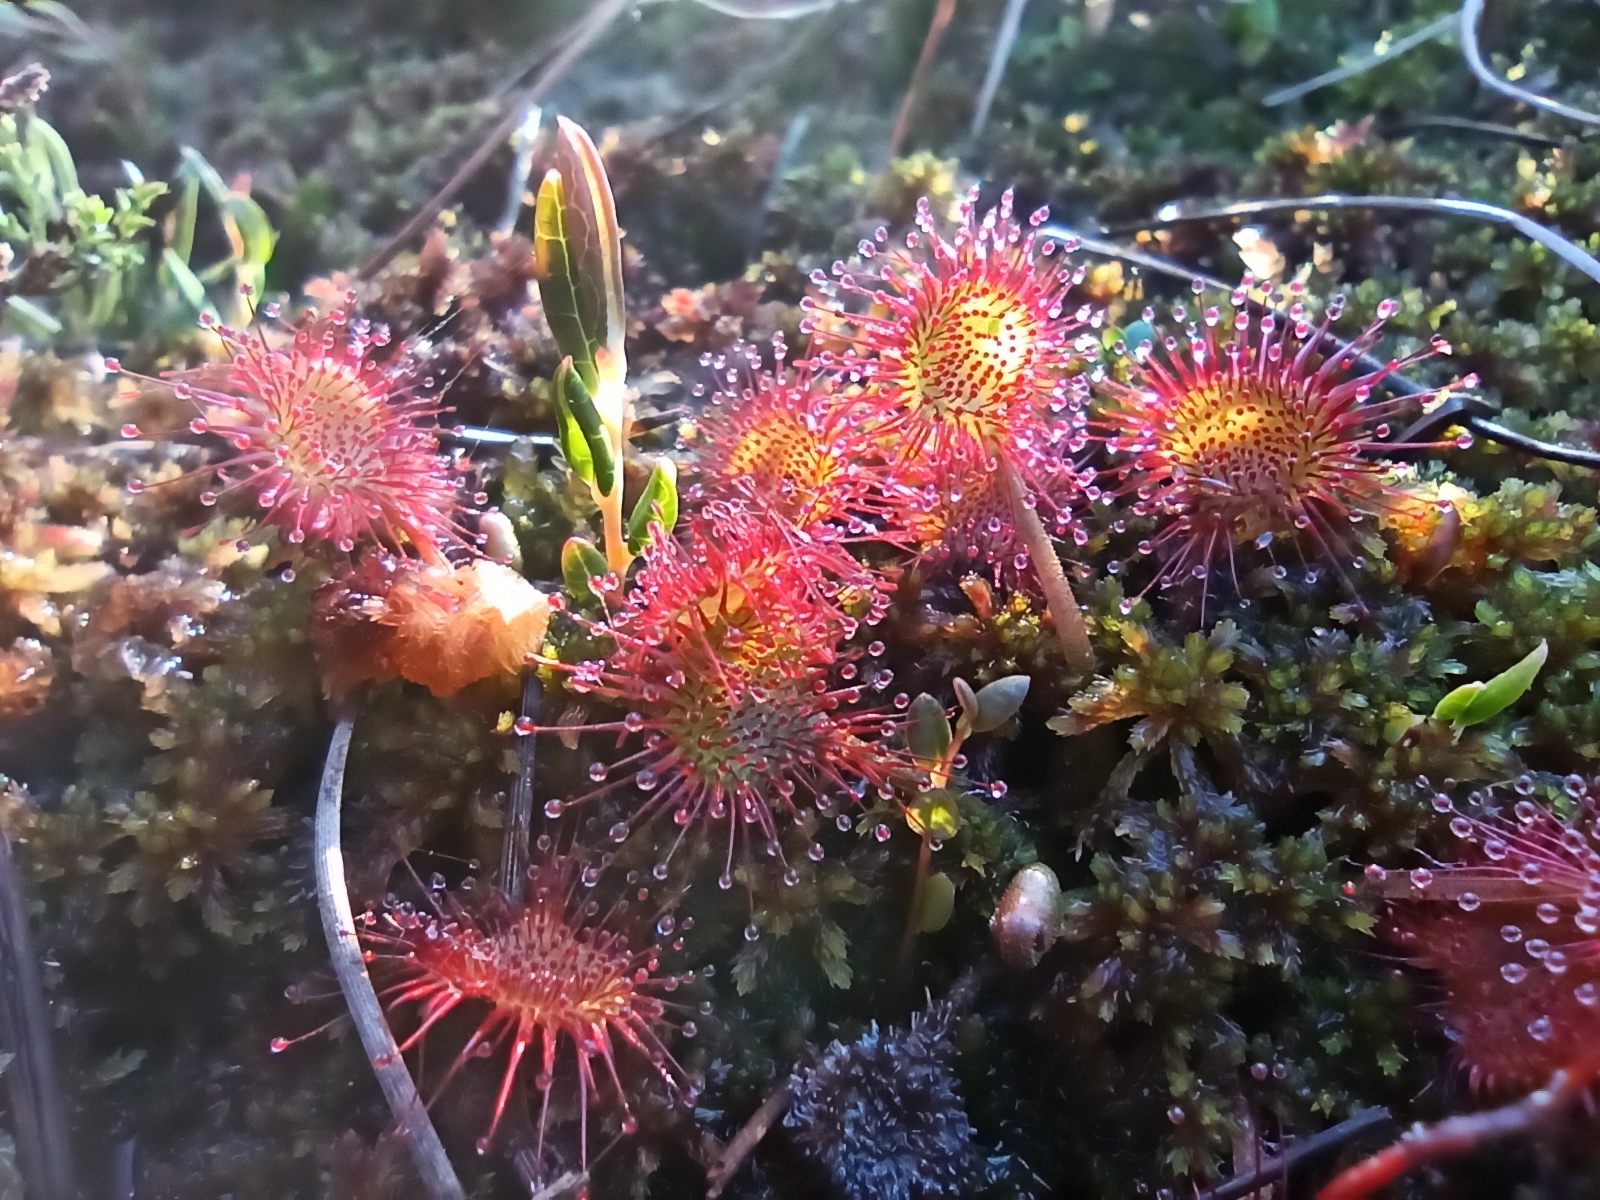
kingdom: Plantae
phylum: Tracheophyta
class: Magnoliopsida
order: Caryophyllales
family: Droseraceae
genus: Drosera
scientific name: Drosera rotundifolia
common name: Round-leaved sundew
